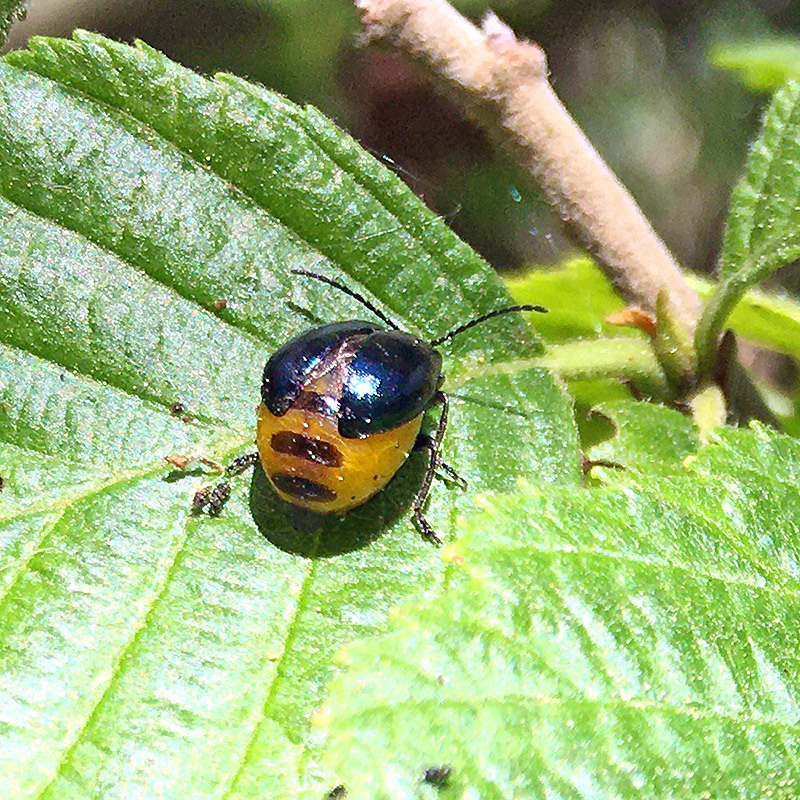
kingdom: Animalia
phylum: Arthropoda
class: Insecta
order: Coleoptera
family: Chrysomelidae
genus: Agelastica
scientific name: Agelastica alni
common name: Alder leaf beetle
